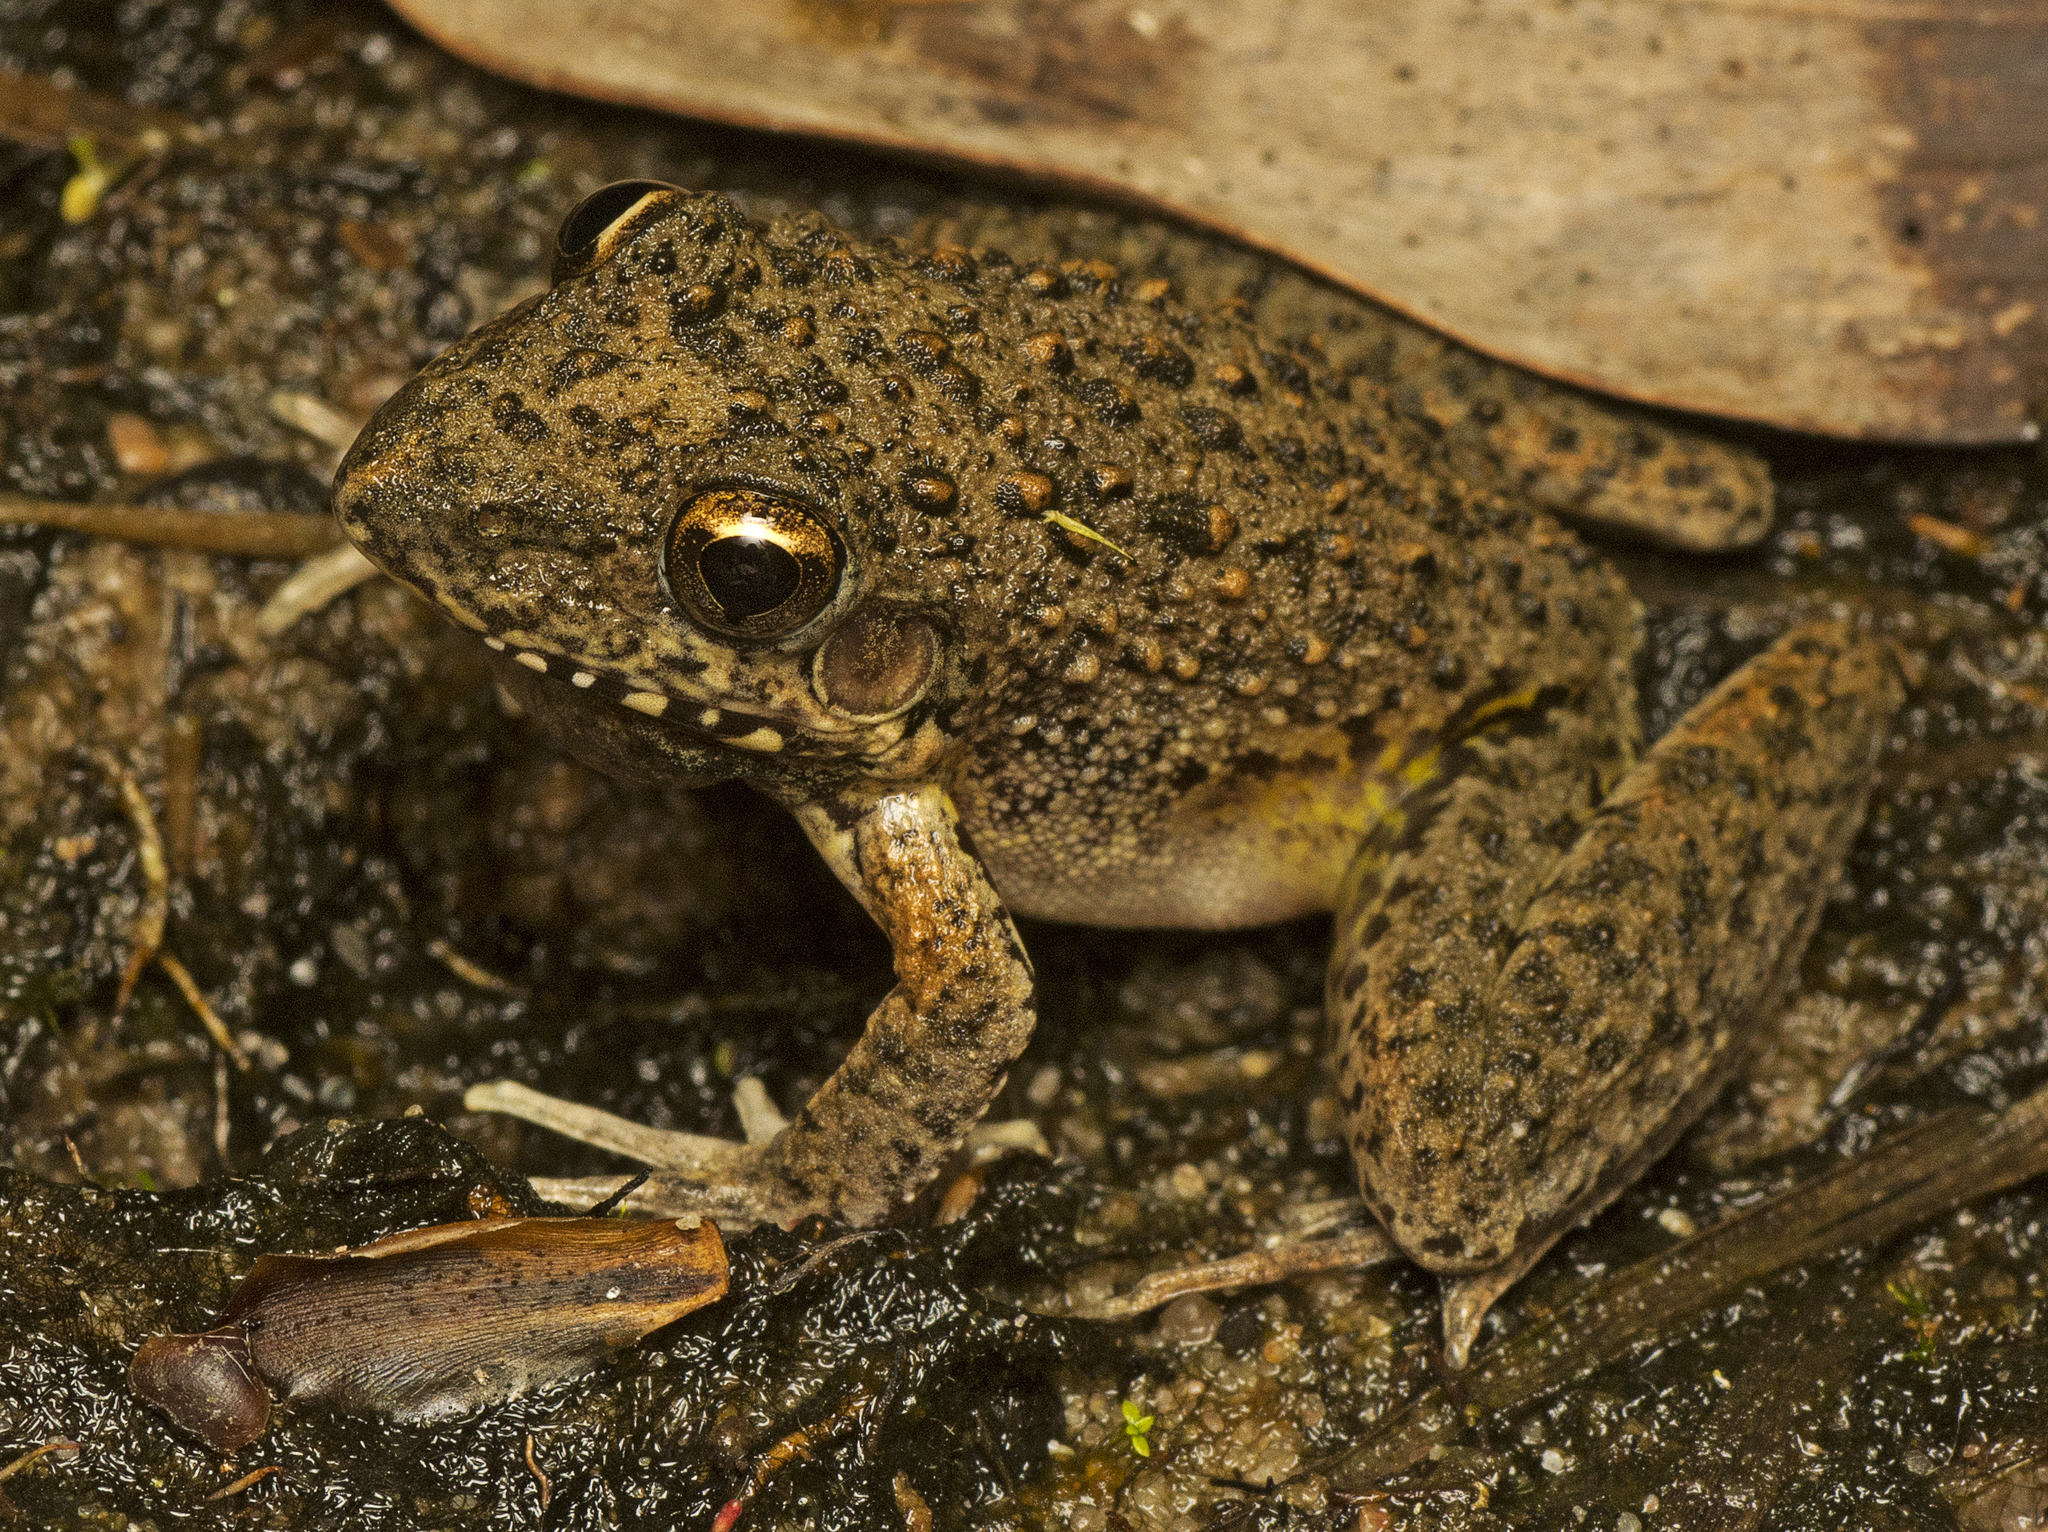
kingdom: Animalia
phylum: Chordata
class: Amphibia
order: Anura
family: Pelodryadidae
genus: Litoria
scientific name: Litoria inermis
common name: Bumpy rocket frog
